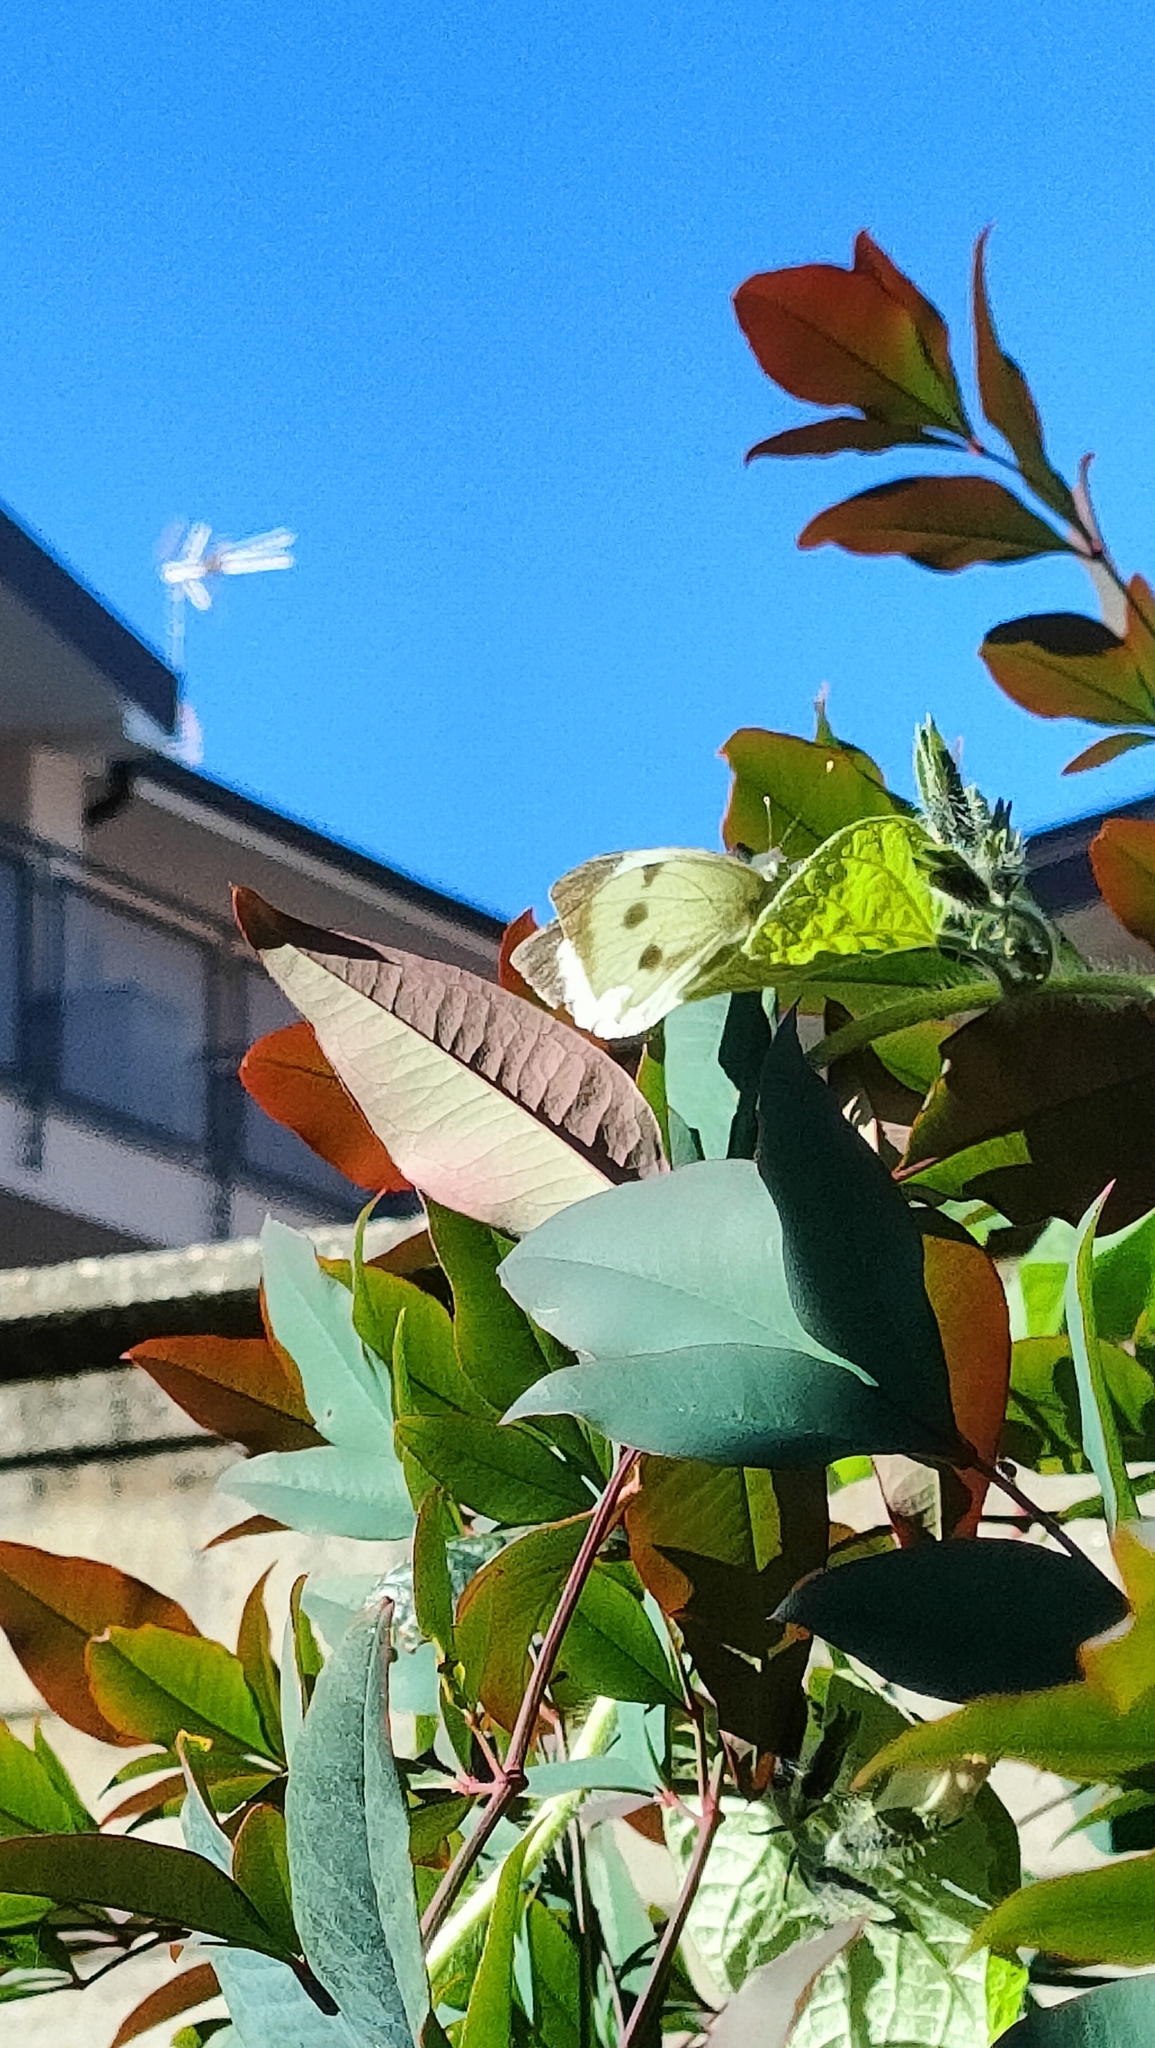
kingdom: Animalia
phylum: Arthropoda
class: Insecta
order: Lepidoptera
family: Pieridae
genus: Pieris
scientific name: Pieris brassicae
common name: Large white
